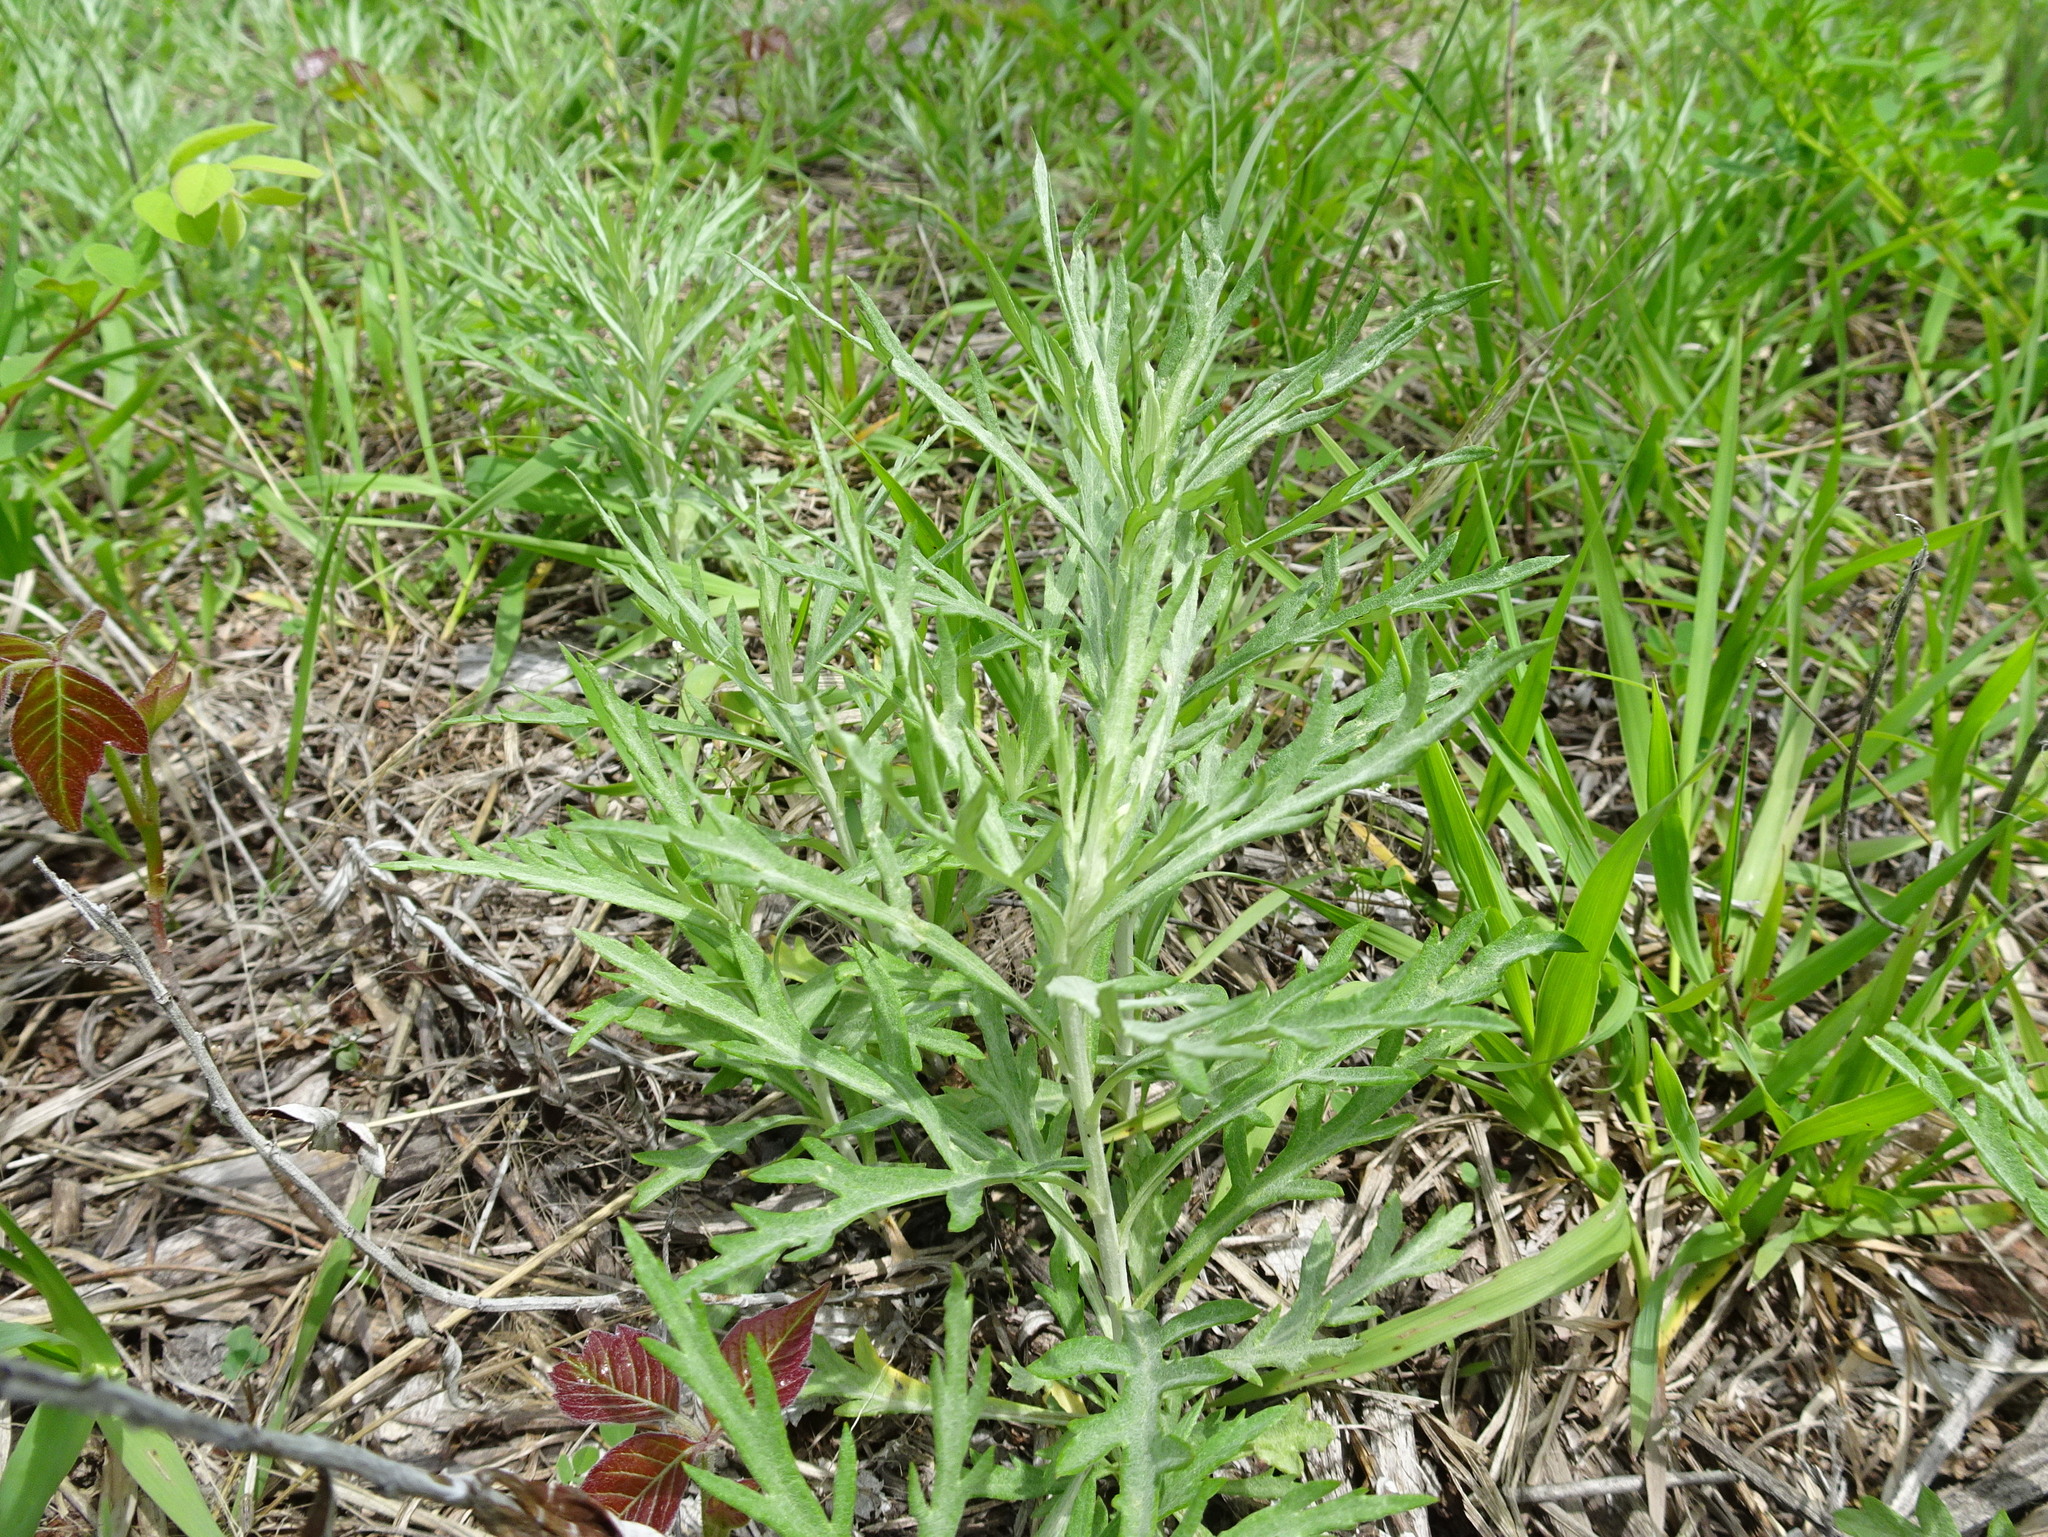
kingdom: Plantae
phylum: Tracheophyta
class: Magnoliopsida
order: Asterales
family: Asteraceae
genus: Artemisia
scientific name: Artemisia ludoviciana
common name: Western mugwort
